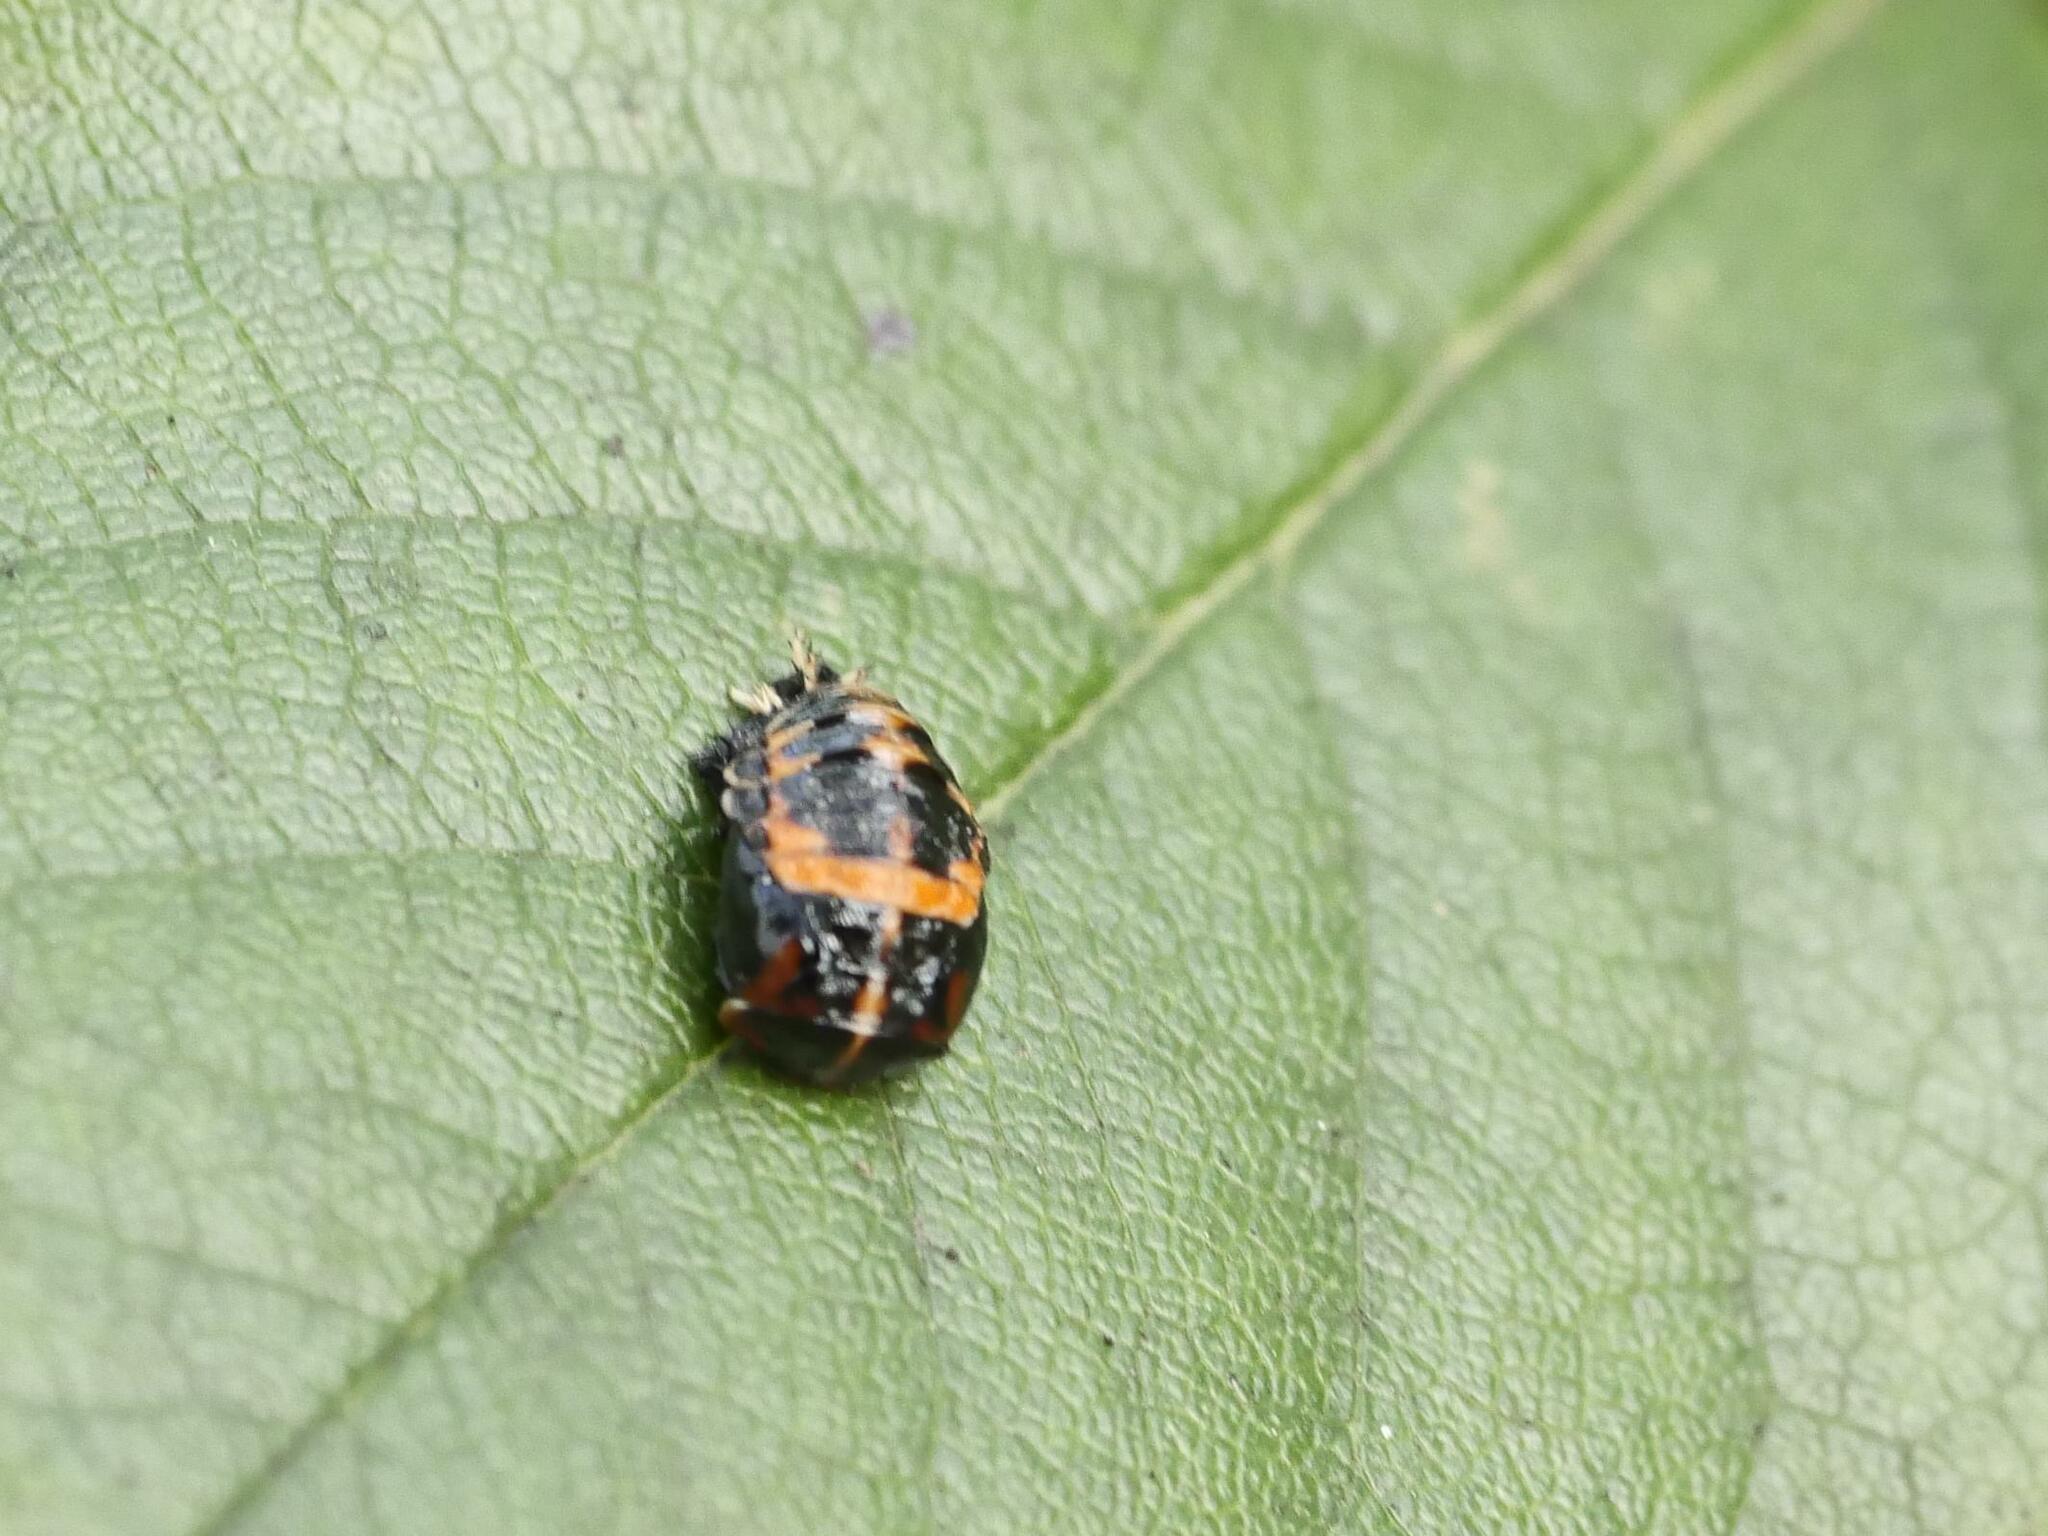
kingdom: Animalia
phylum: Arthropoda
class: Insecta
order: Coleoptera
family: Coccinellidae
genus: Harmonia
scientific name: Harmonia axyridis
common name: Harlequin ladybird
